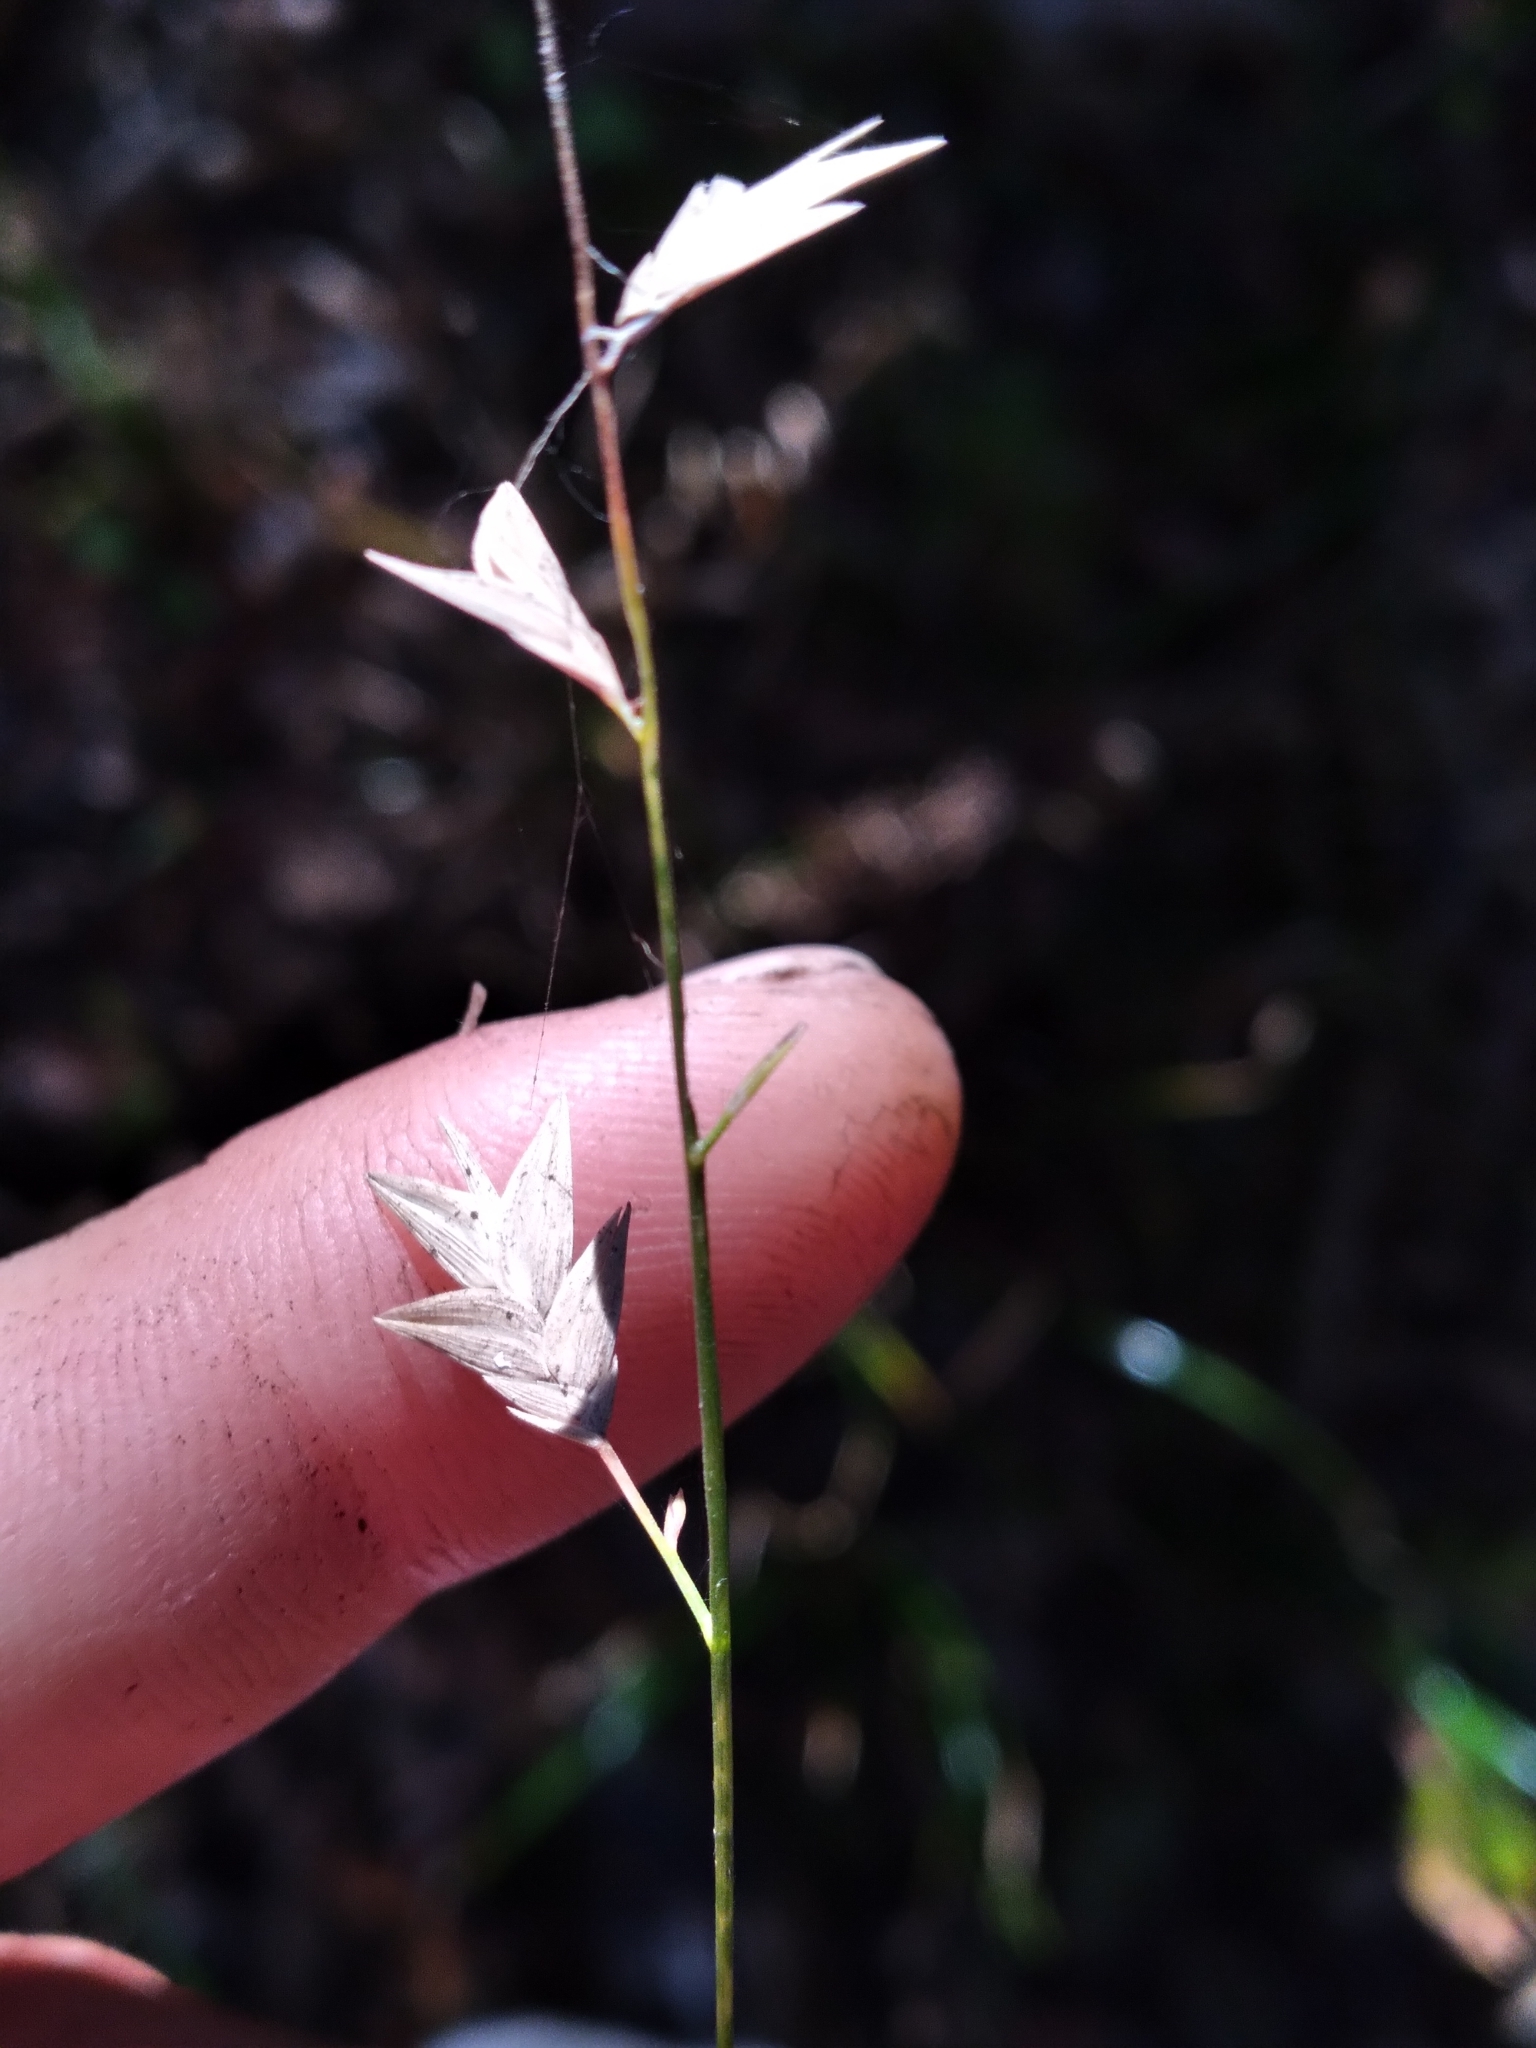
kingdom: Plantae
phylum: Tracheophyta
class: Liliopsida
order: Poales
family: Poaceae
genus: Chasmanthium
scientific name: Chasmanthium laxum
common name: Slender chasmanthium
